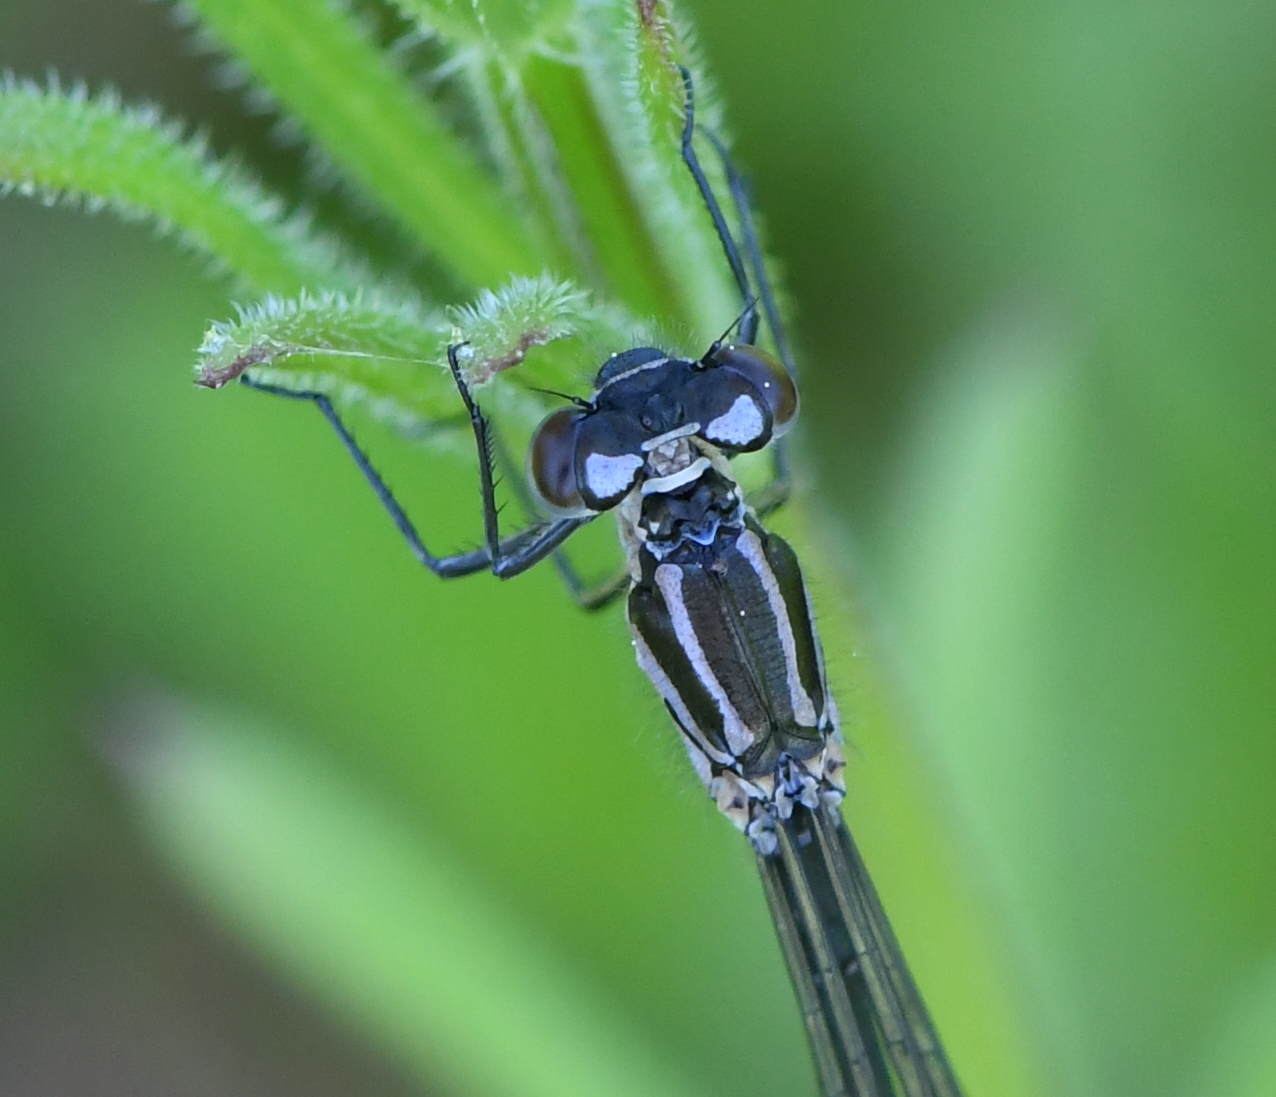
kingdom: Animalia
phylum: Arthropoda
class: Insecta
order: Odonata
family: Coenagrionidae
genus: Coenagrion
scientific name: Coenagrion pulchellum
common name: Variable bluet
